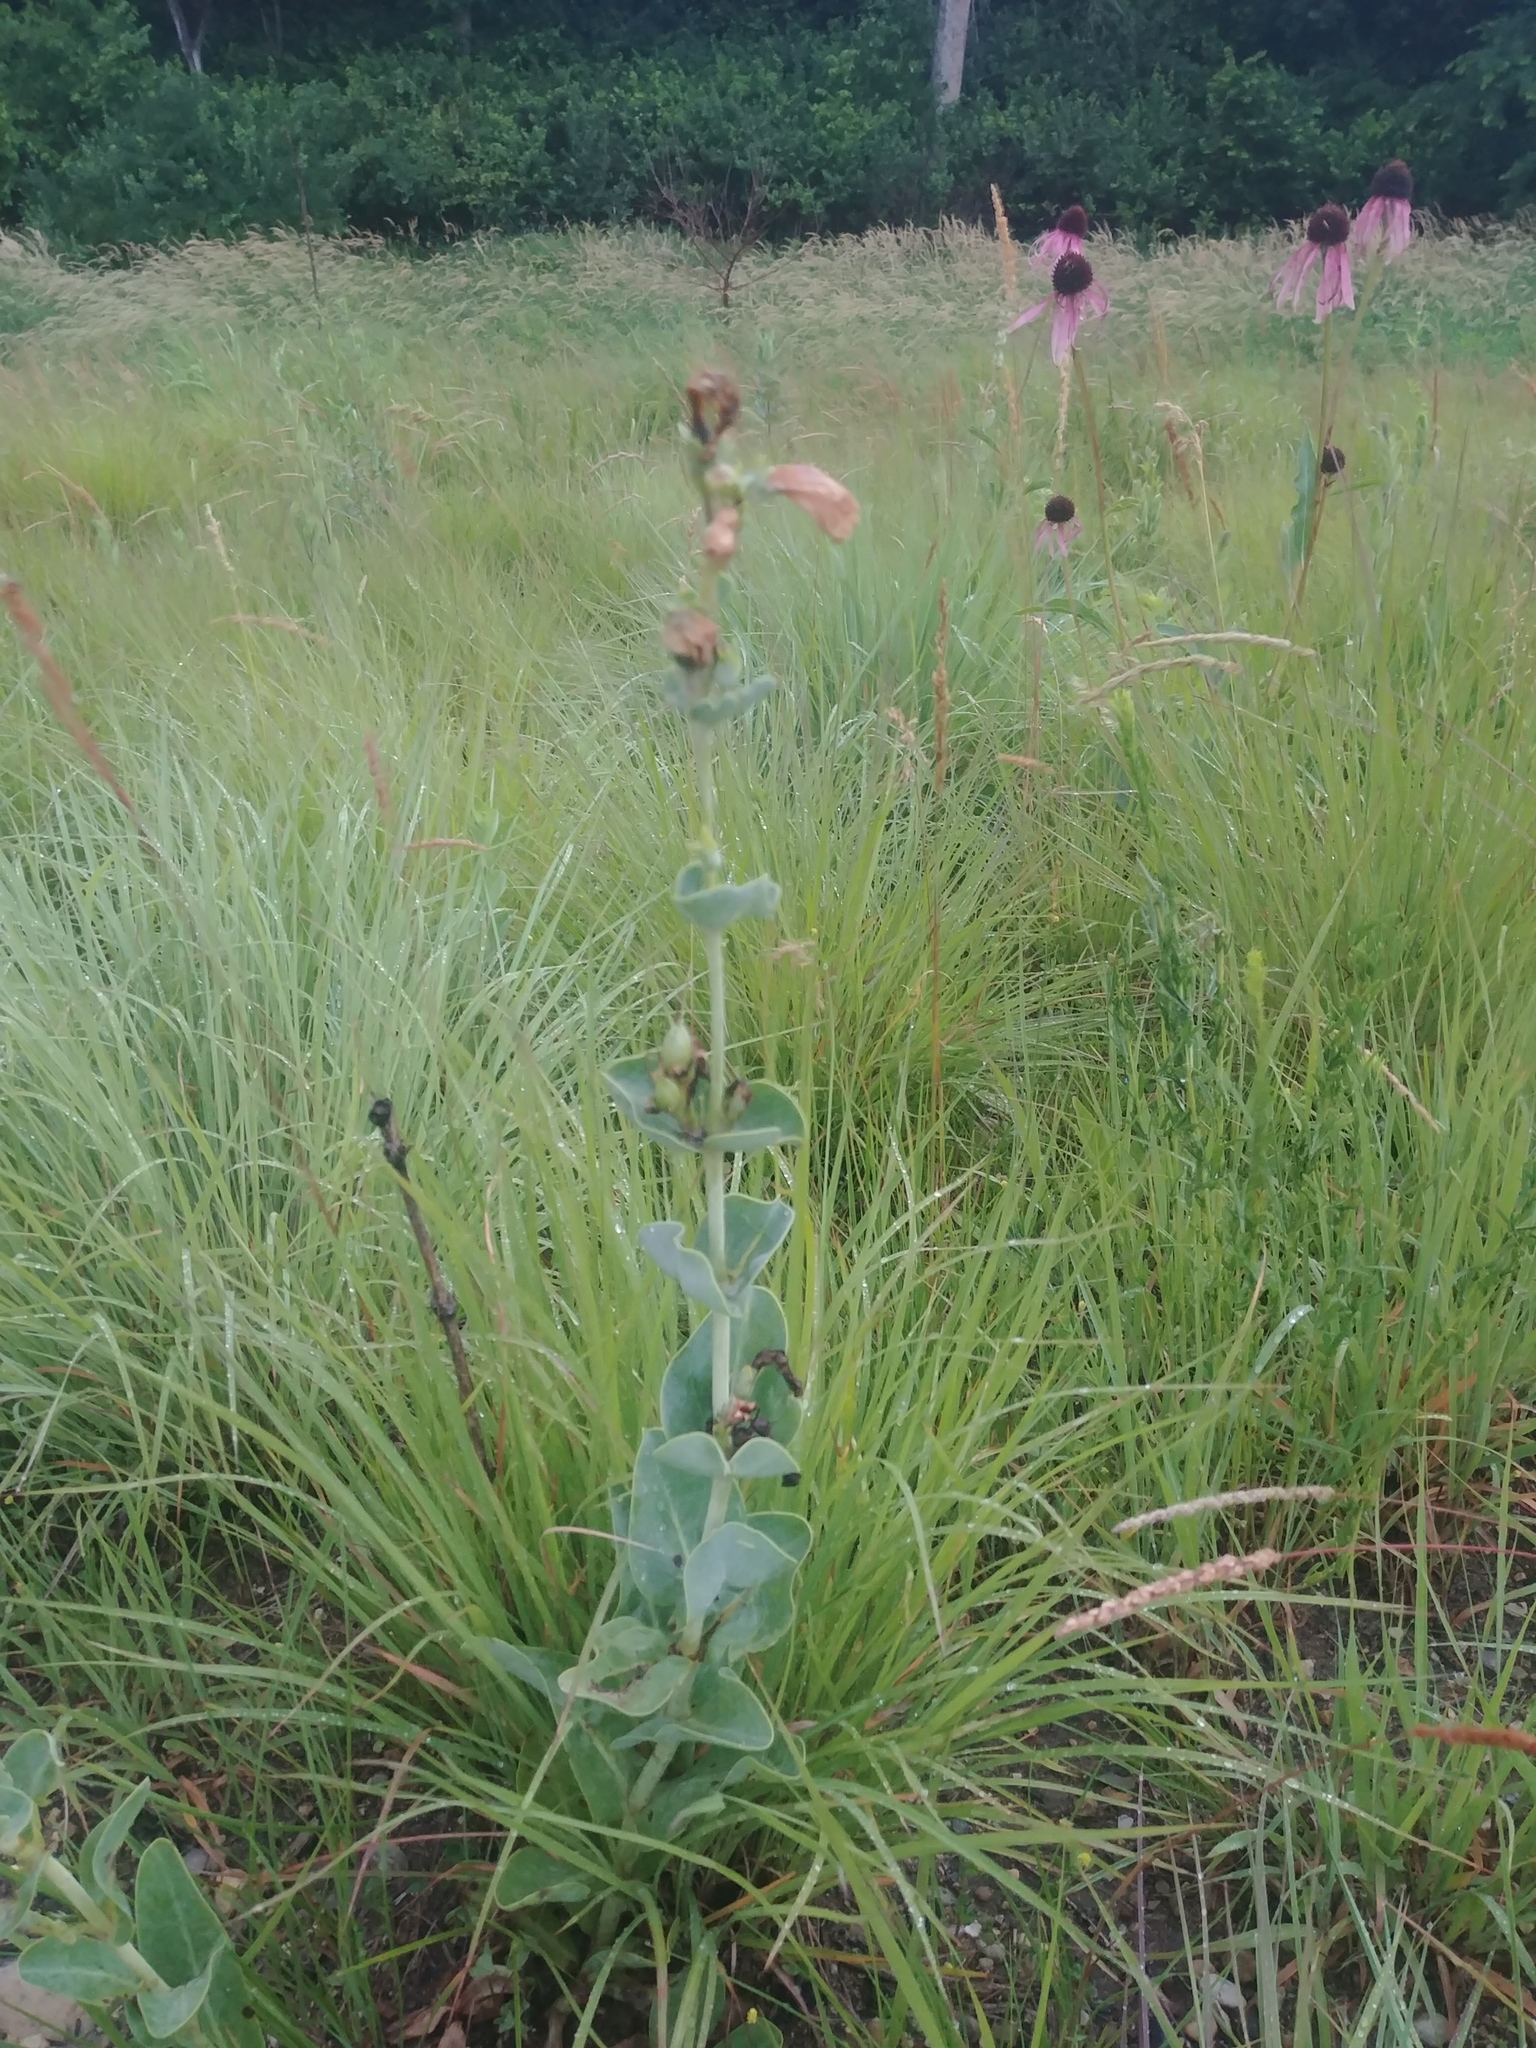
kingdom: Plantae
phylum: Tracheophyta
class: Magnoliopsida
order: Lamiales
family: Plantaginaceae
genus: Penstemon
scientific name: Penstemon
